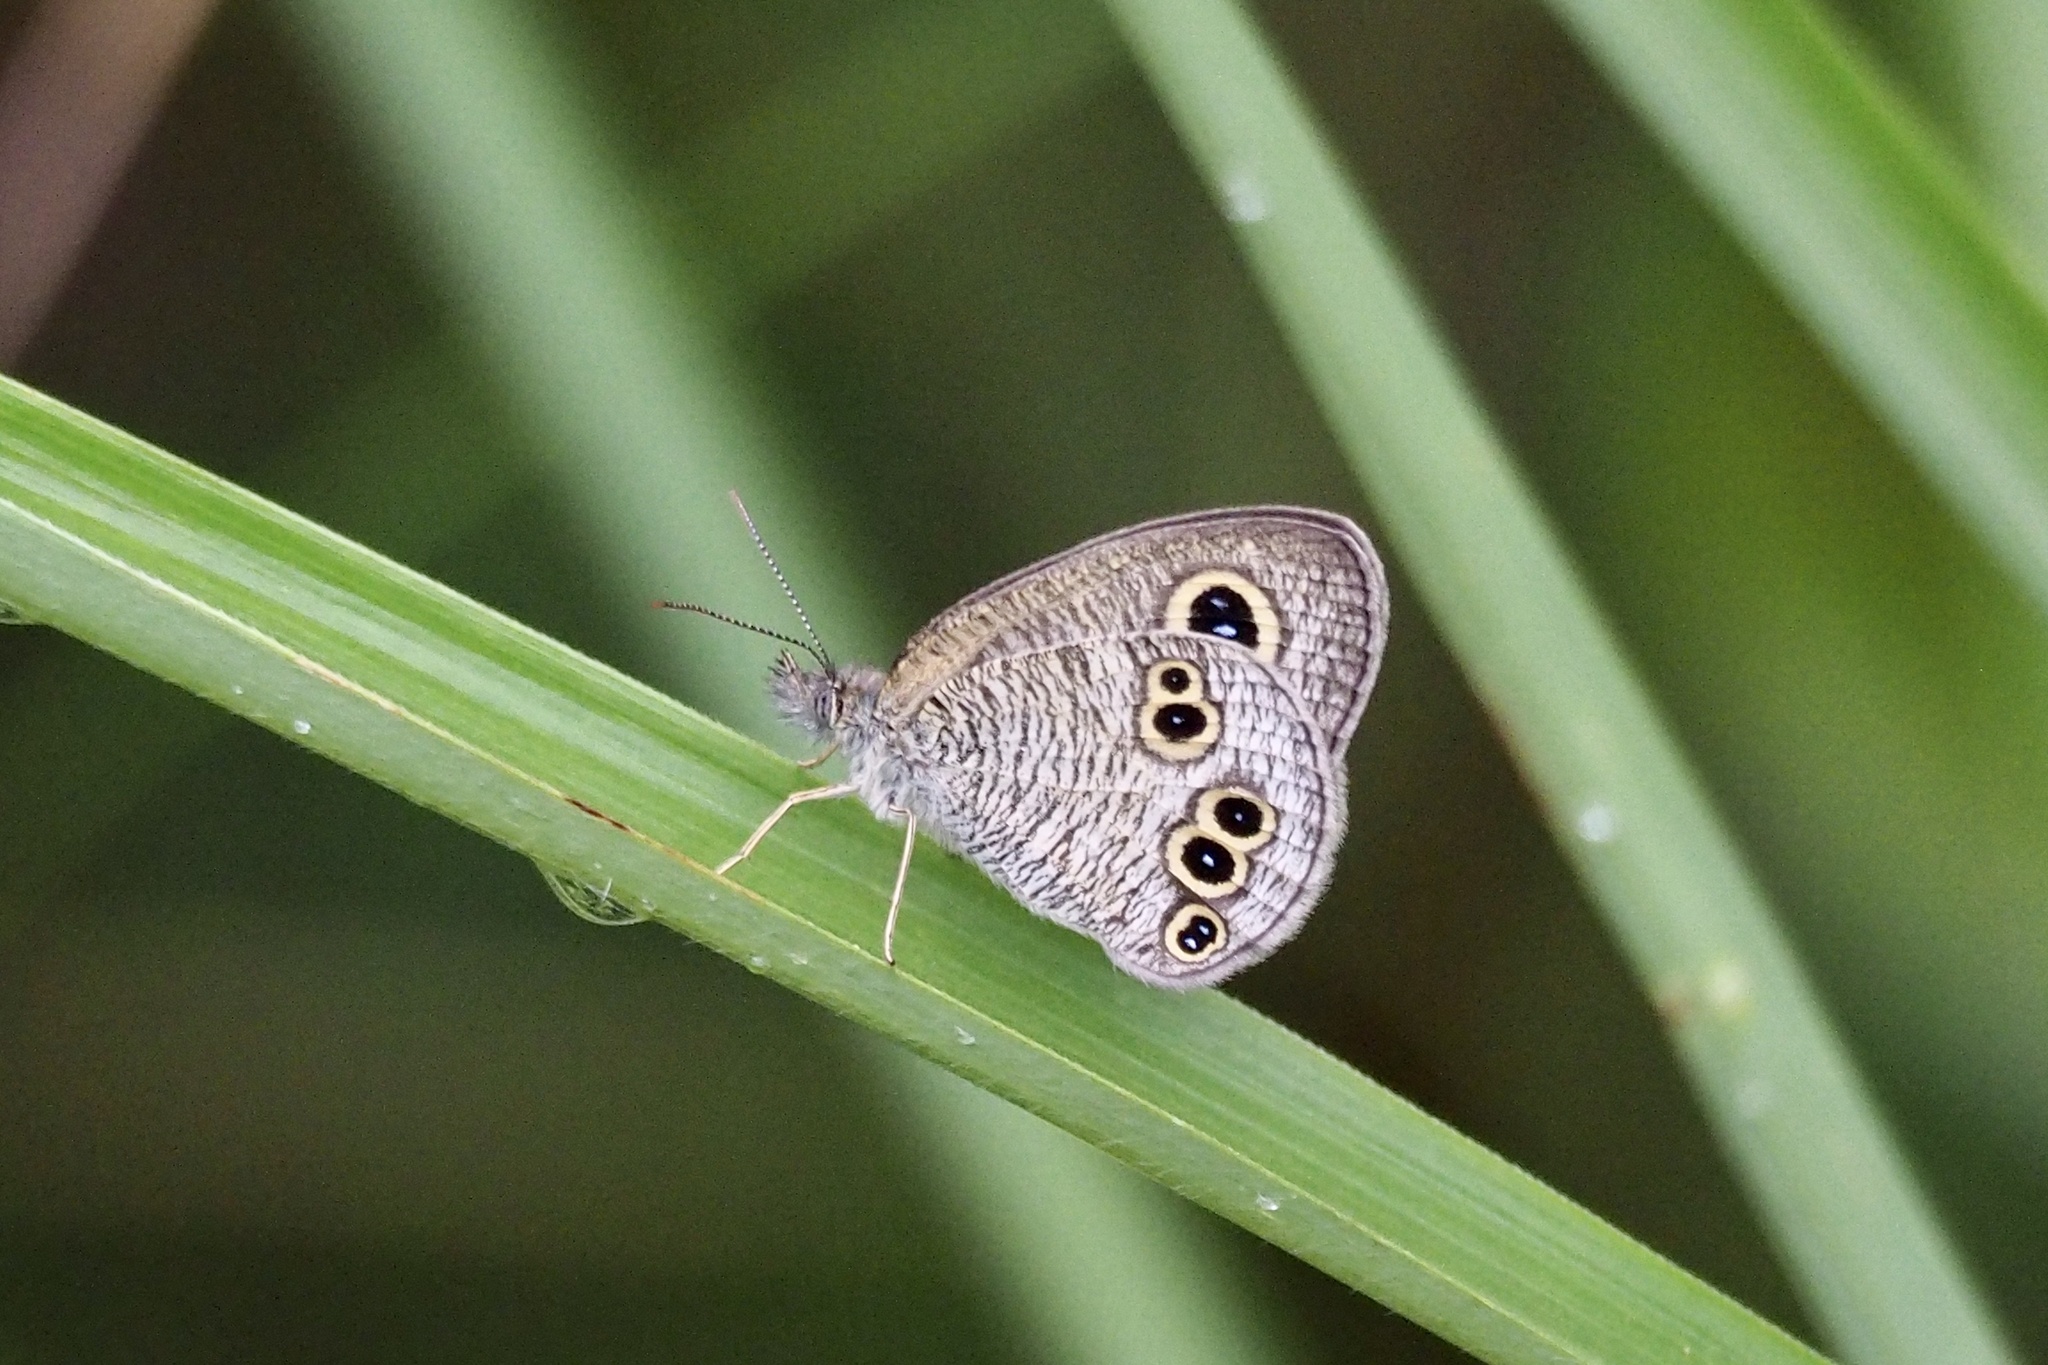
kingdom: Animalia
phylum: Arthropoda
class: Insecta
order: Lepidoptera
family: Nymphalidae
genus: Ypthima
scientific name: Ypthima argus
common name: Common fivering
